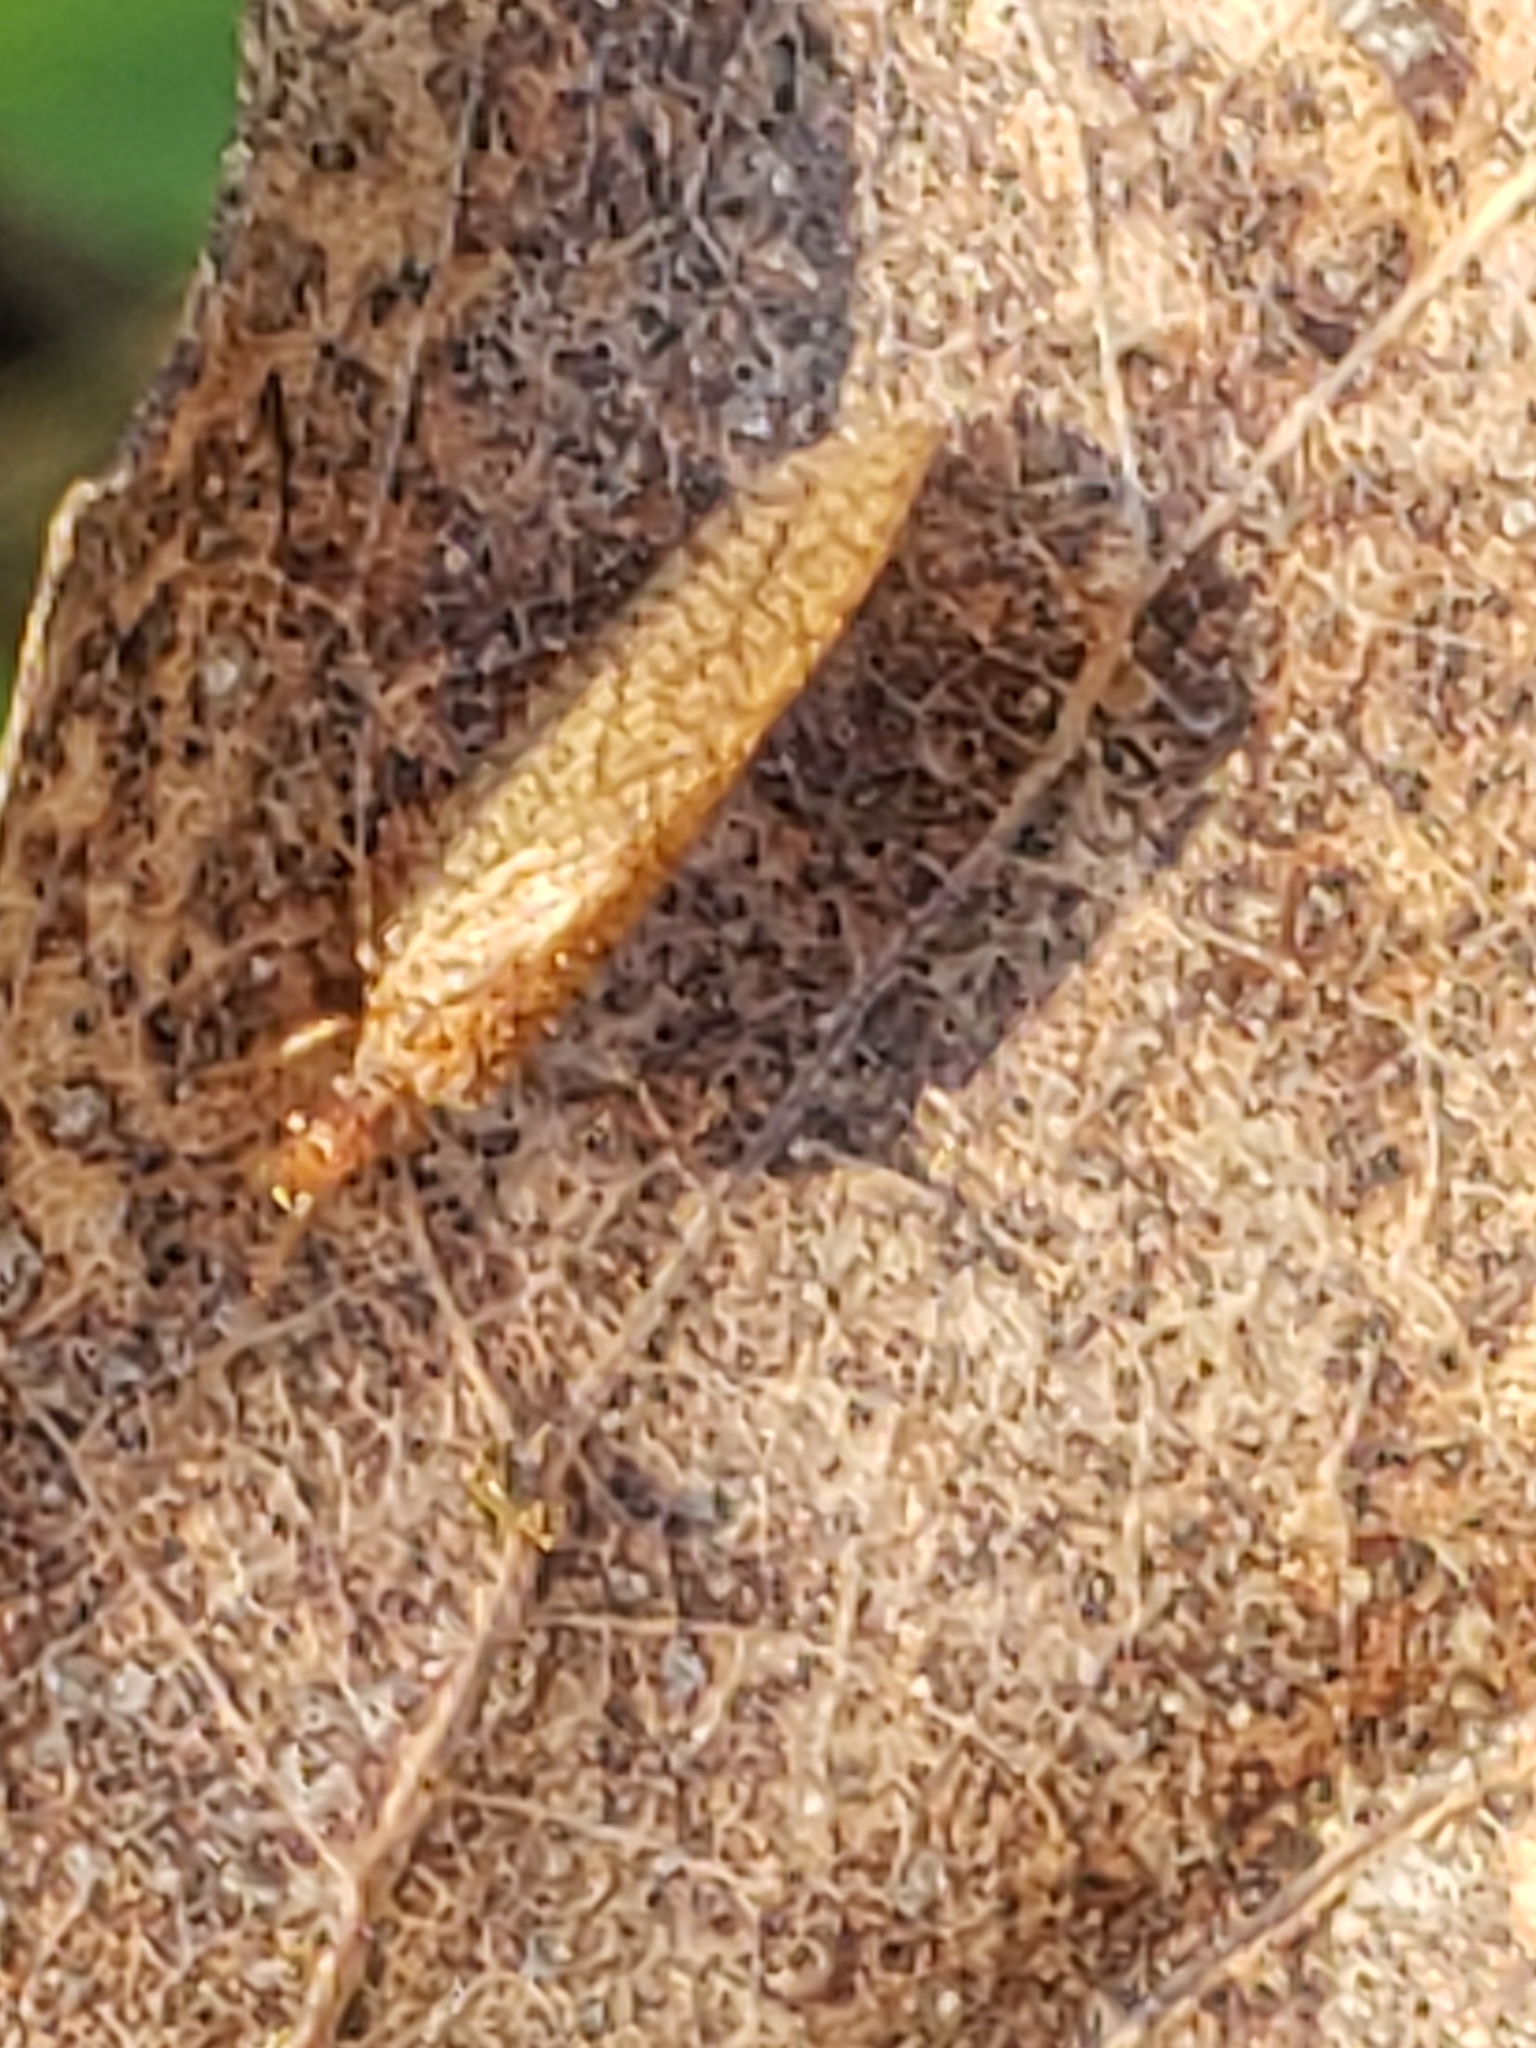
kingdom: Animalia
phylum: Arthropoda
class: Insecta
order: Neuroptera
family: Hemerobiidae
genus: Micromus
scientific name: Micromus posticus
